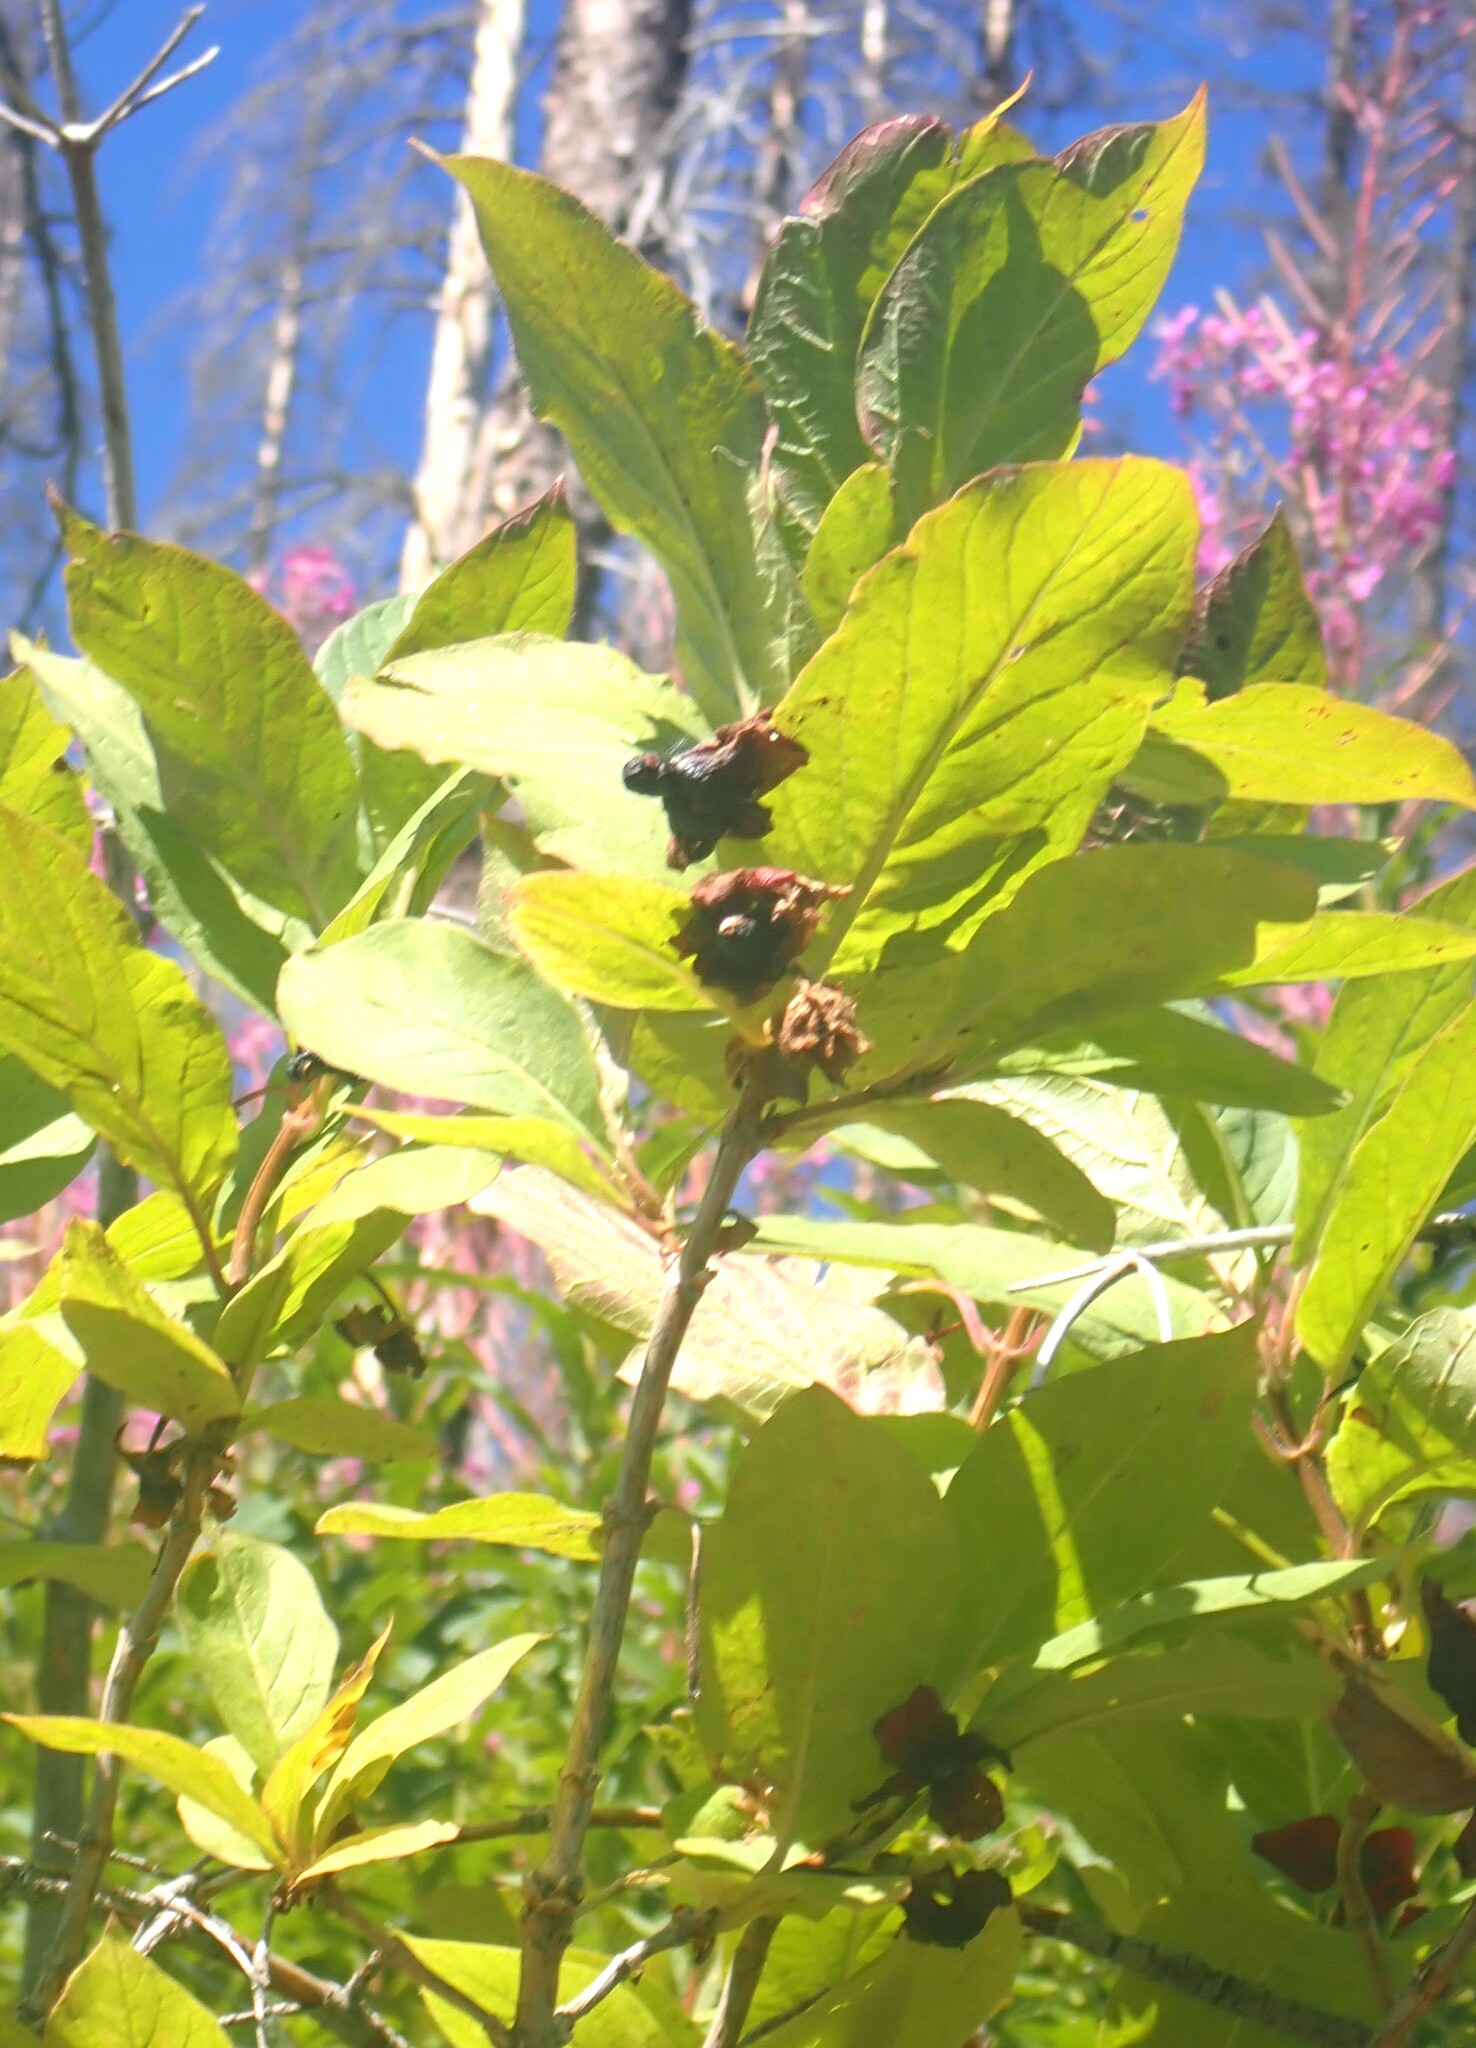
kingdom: Plantae
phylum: Tracheophyta
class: Magnoliopsida
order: Dipsacales
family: Caprifoliaceae
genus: Lonicera
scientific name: Lonicera involucrata
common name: Californian honeysuckle
